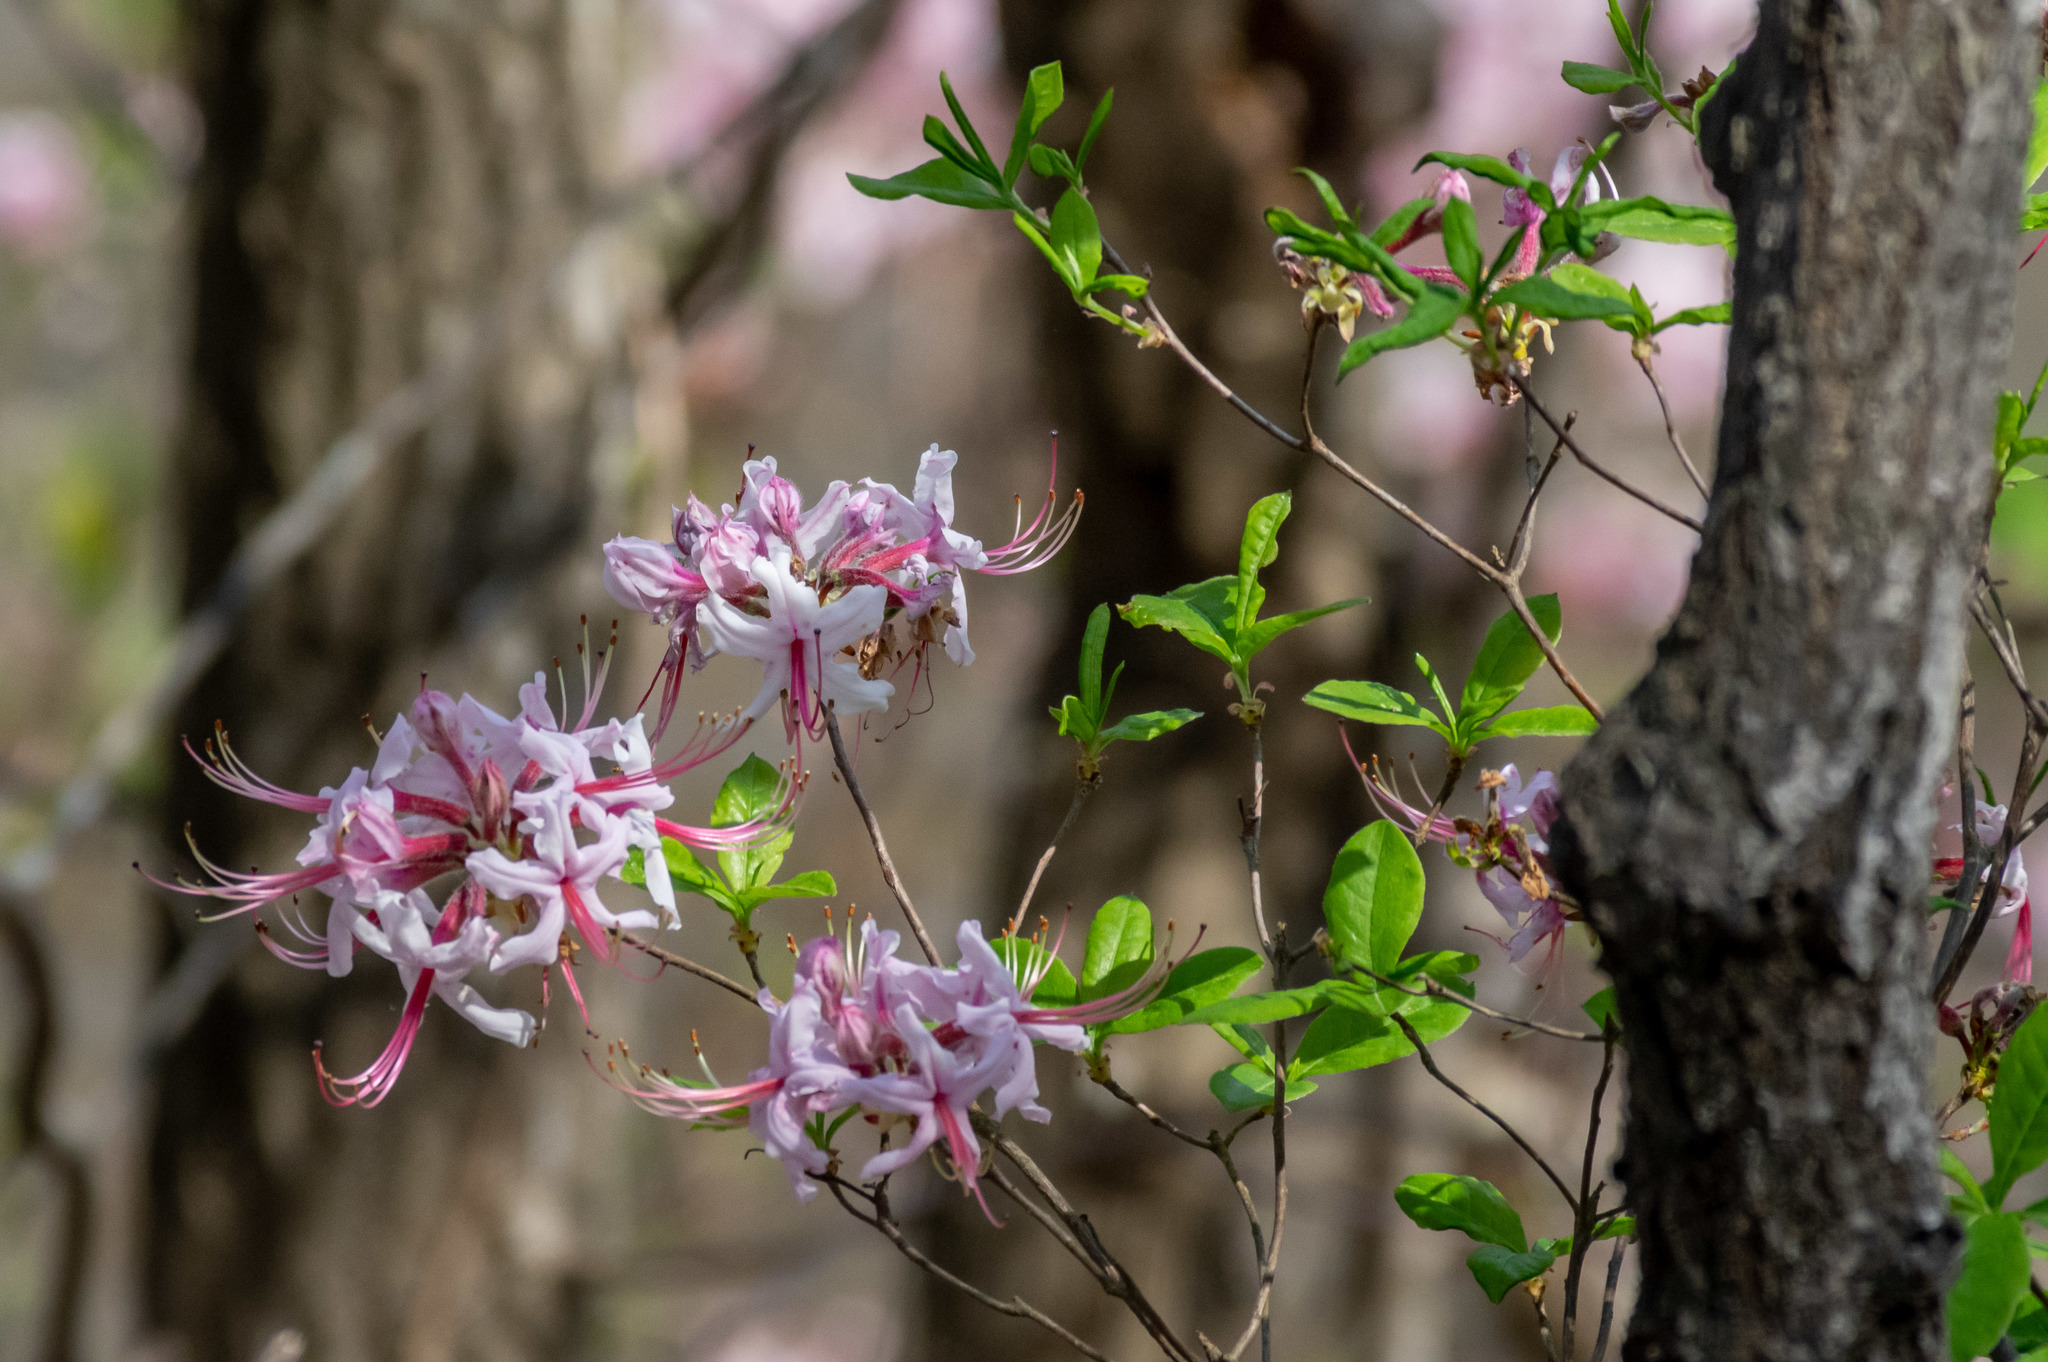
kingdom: Plantae
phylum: Tracheophyta
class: Magnoliopsida
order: Ericales
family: Ericaceae
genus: Rhododendron
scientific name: Rhododendron periclymenoides
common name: Election-pink
